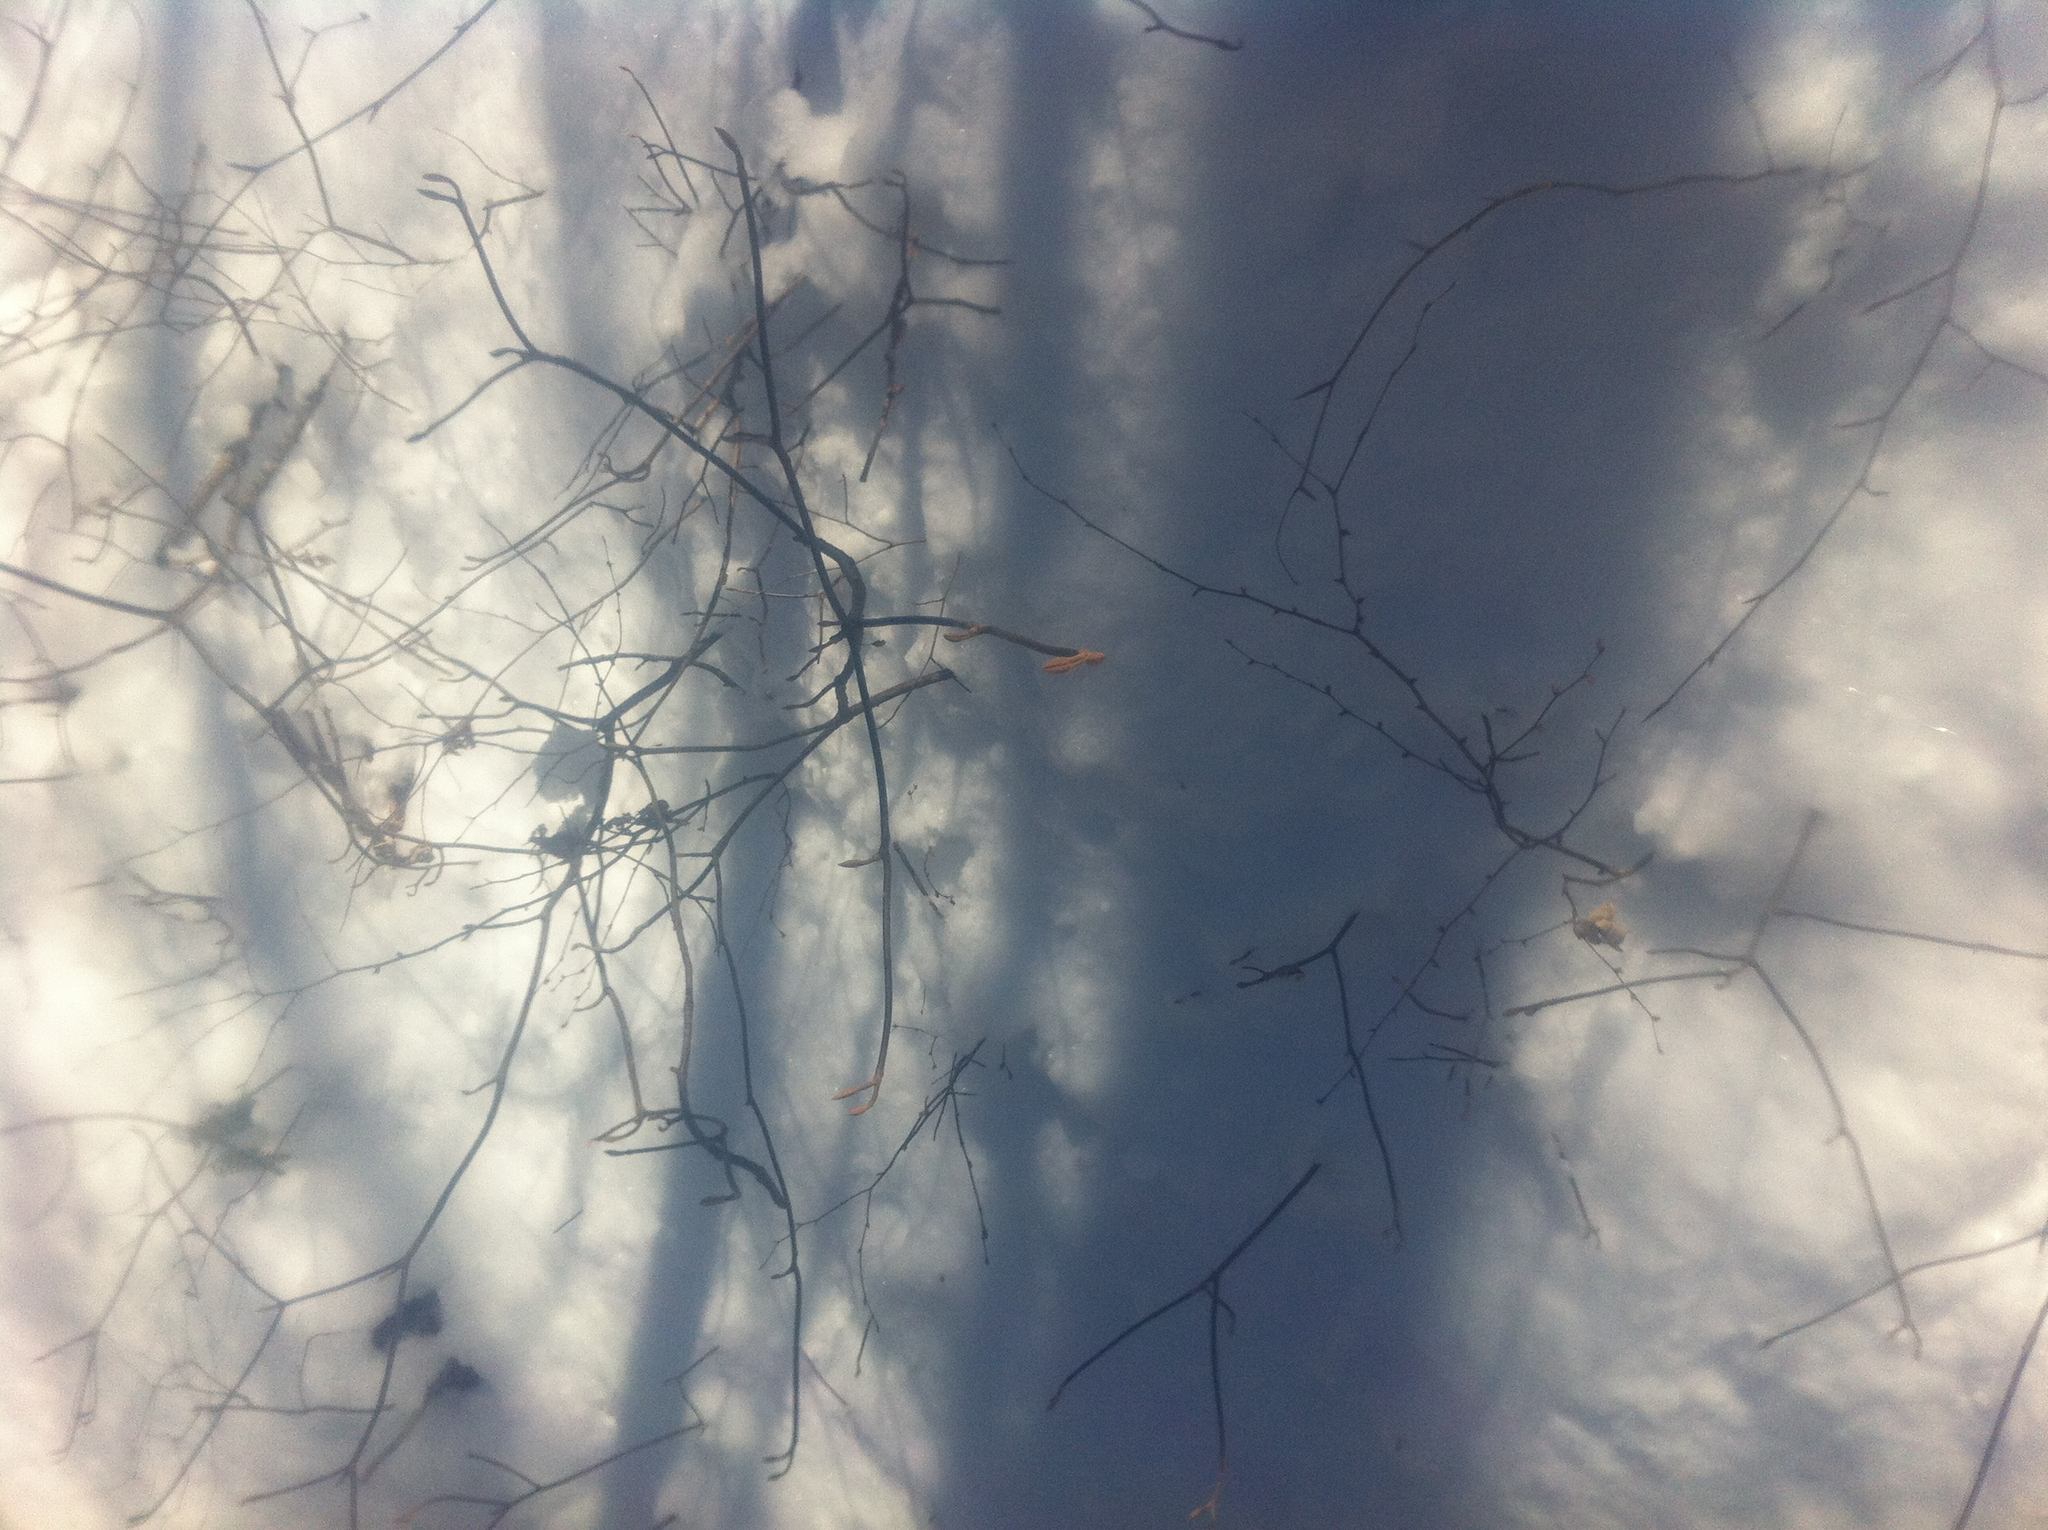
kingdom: Plantae
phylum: Tracheophyta
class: Magnoliopsida
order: Dipsacales
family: Viburnaceae
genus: Viburnum
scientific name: Viburnum lantanoides
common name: Hobblebush
